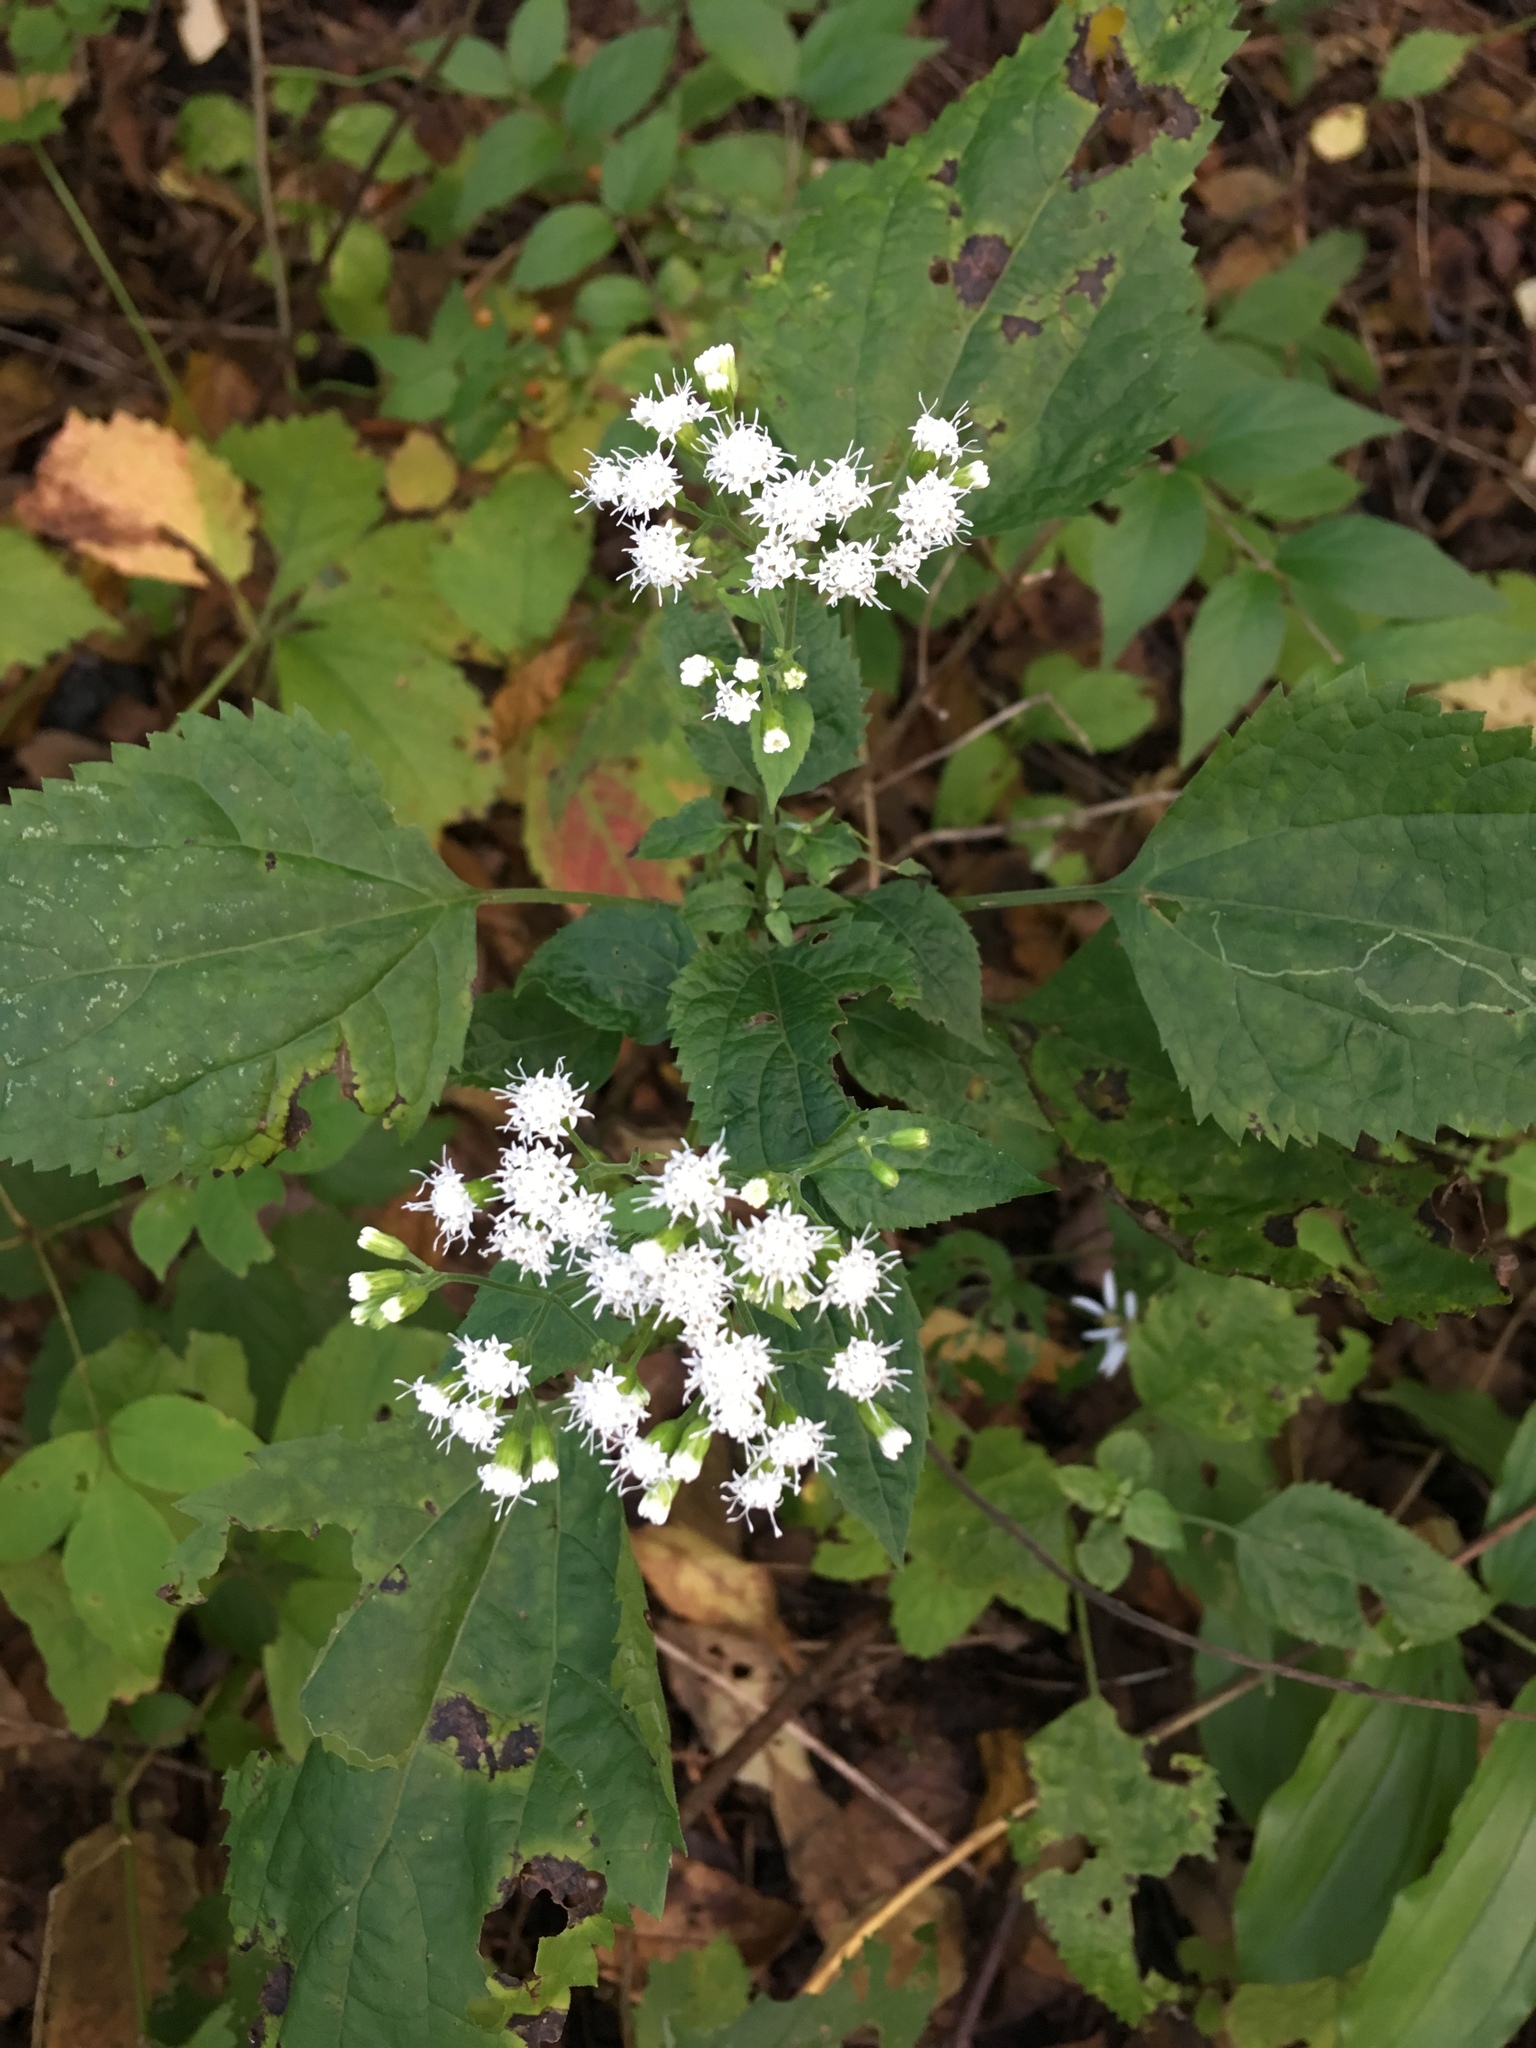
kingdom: Plantae
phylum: Tracheophyta
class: Magnoliopsida
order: Asterales
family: Asteraceae
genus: Ageratina
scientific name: Ageratina altissima
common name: White snakeroot
